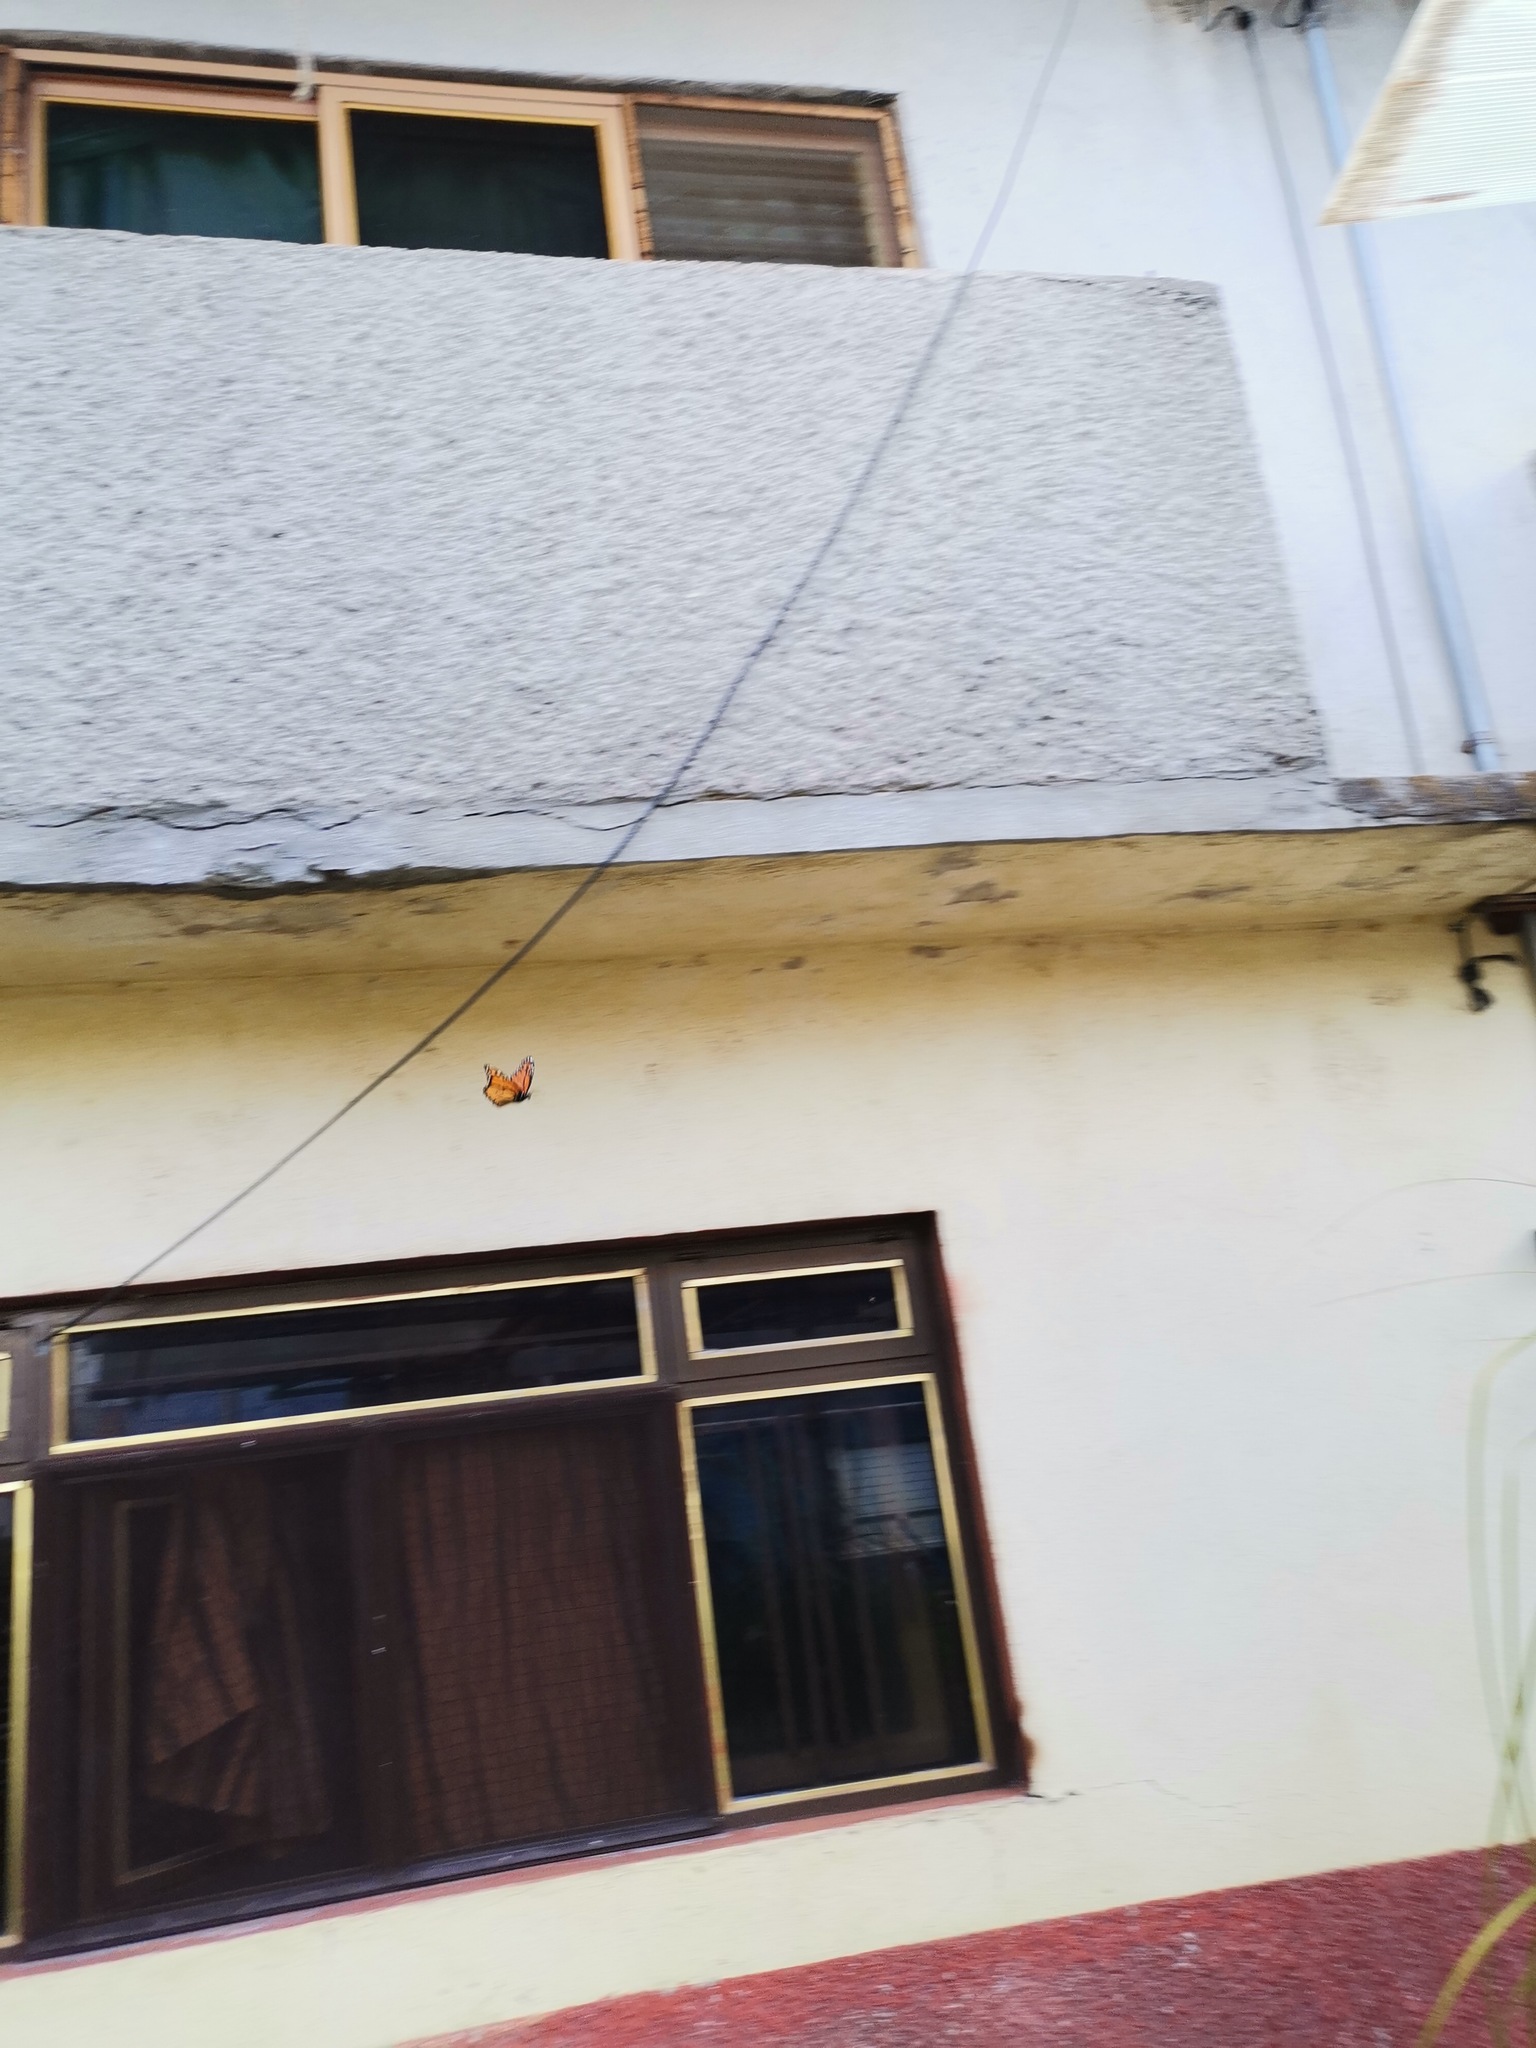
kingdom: Animalia
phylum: Arthropoda
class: Insecta
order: Lepidoptera
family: Nymphalidae
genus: Danaus
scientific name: Danaus plexippus
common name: Monarch
